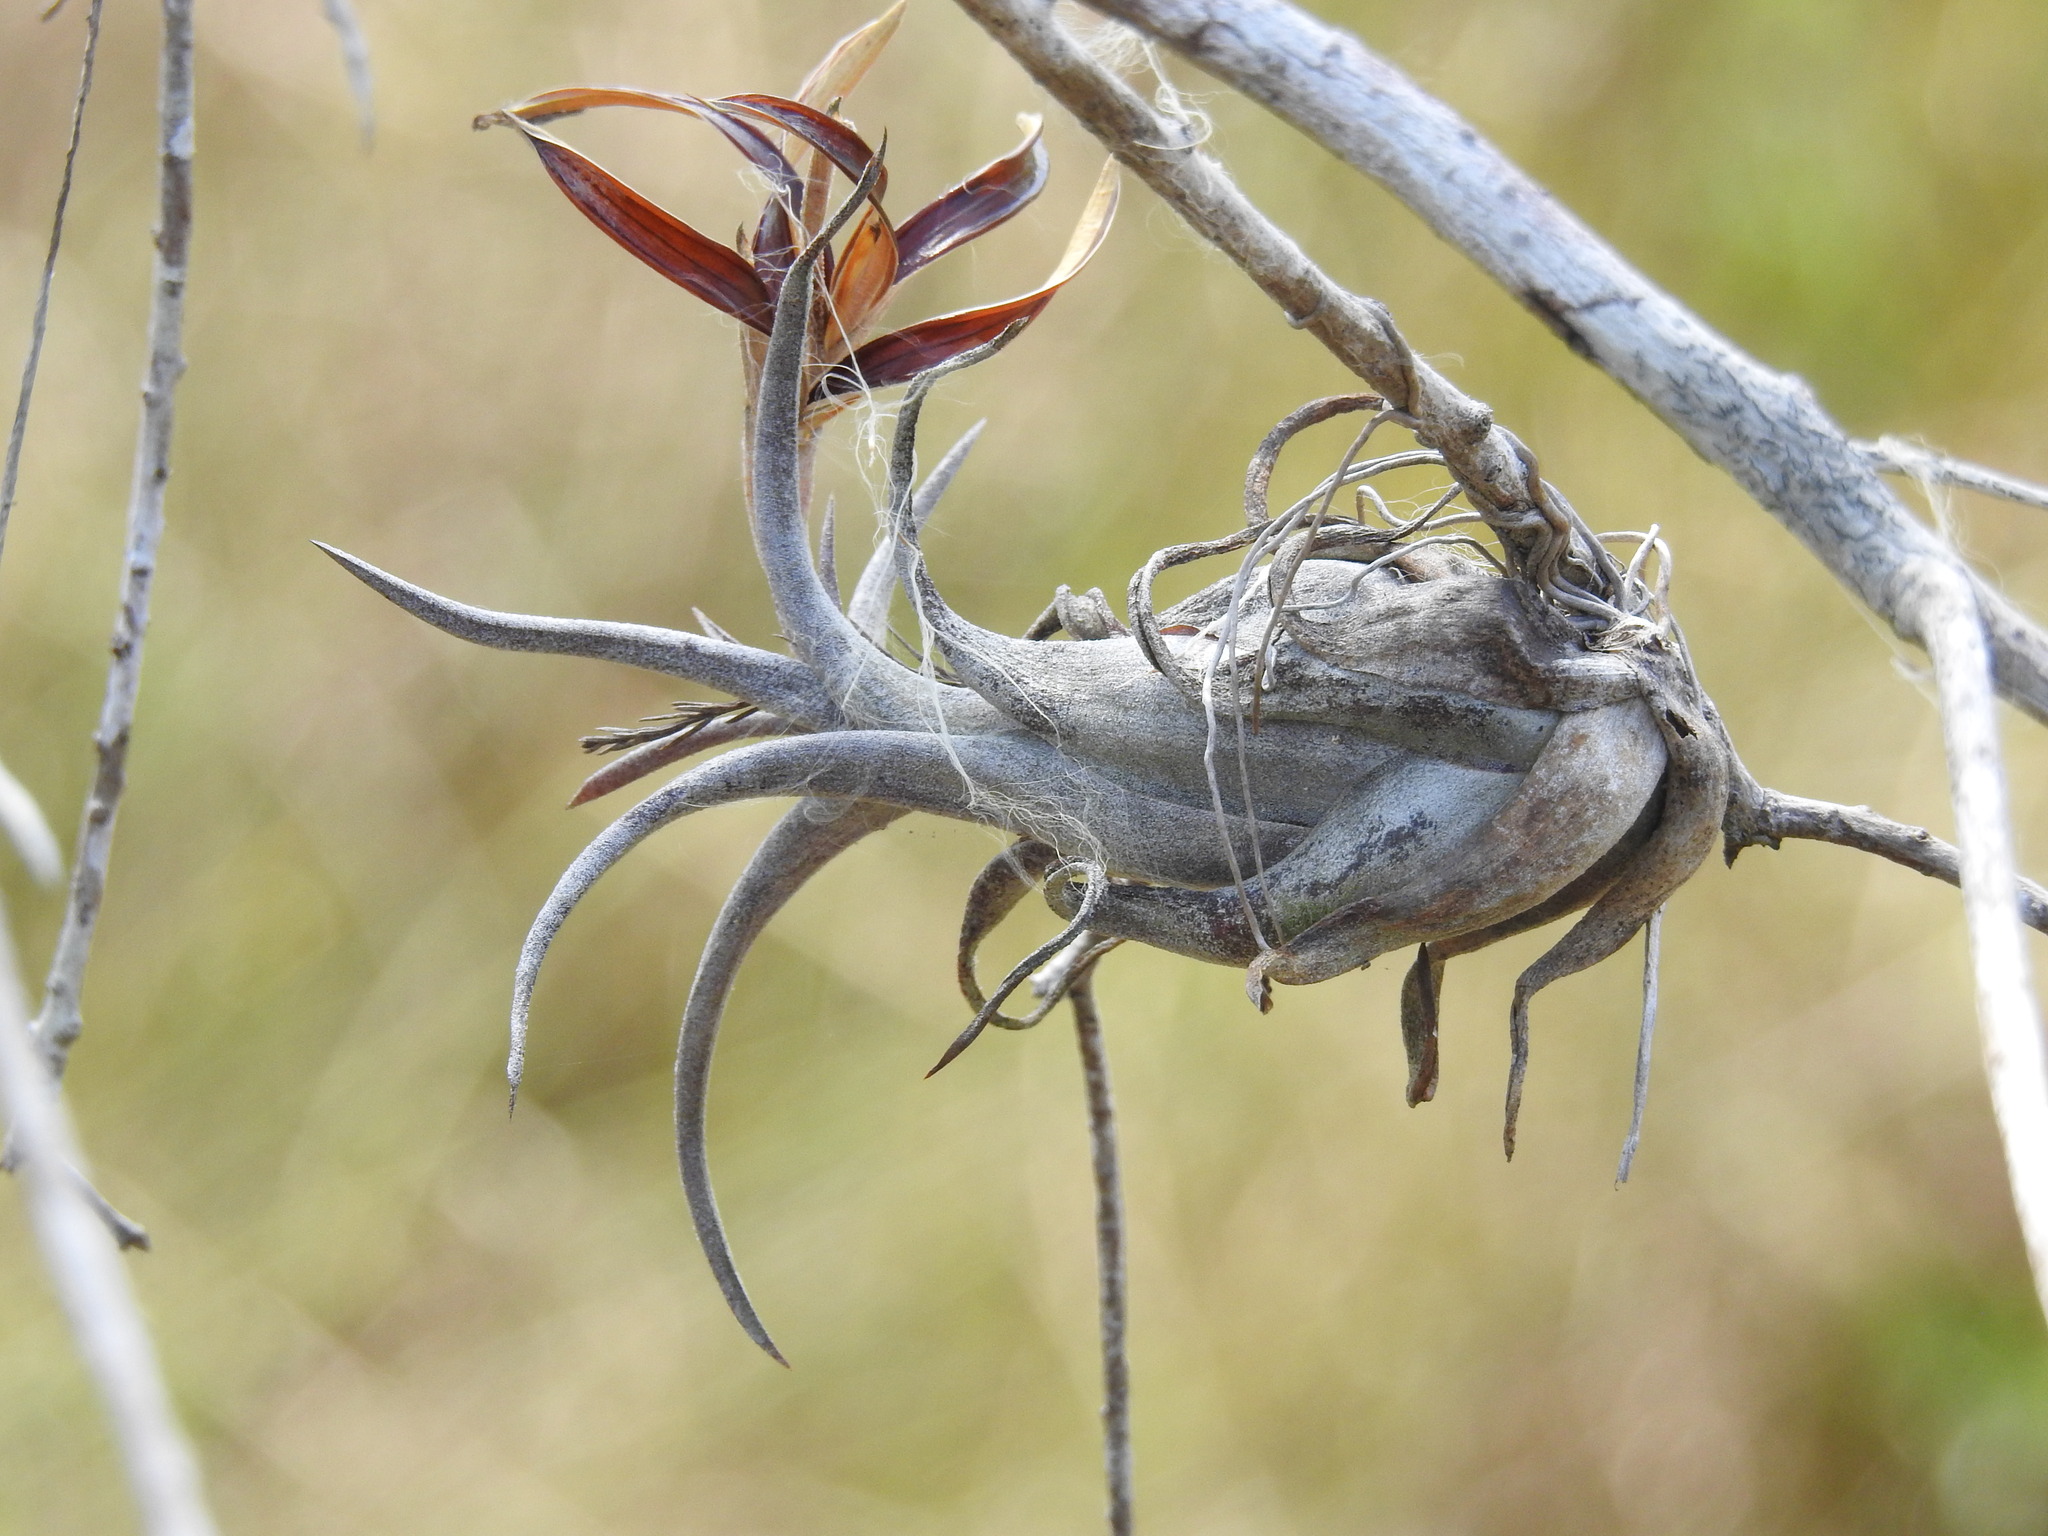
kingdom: Plantae
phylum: Tracheophyta
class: Liliopsida
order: Poales
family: Bromeliaceae
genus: Tillandsia
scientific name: Tillandsia paucifolia
